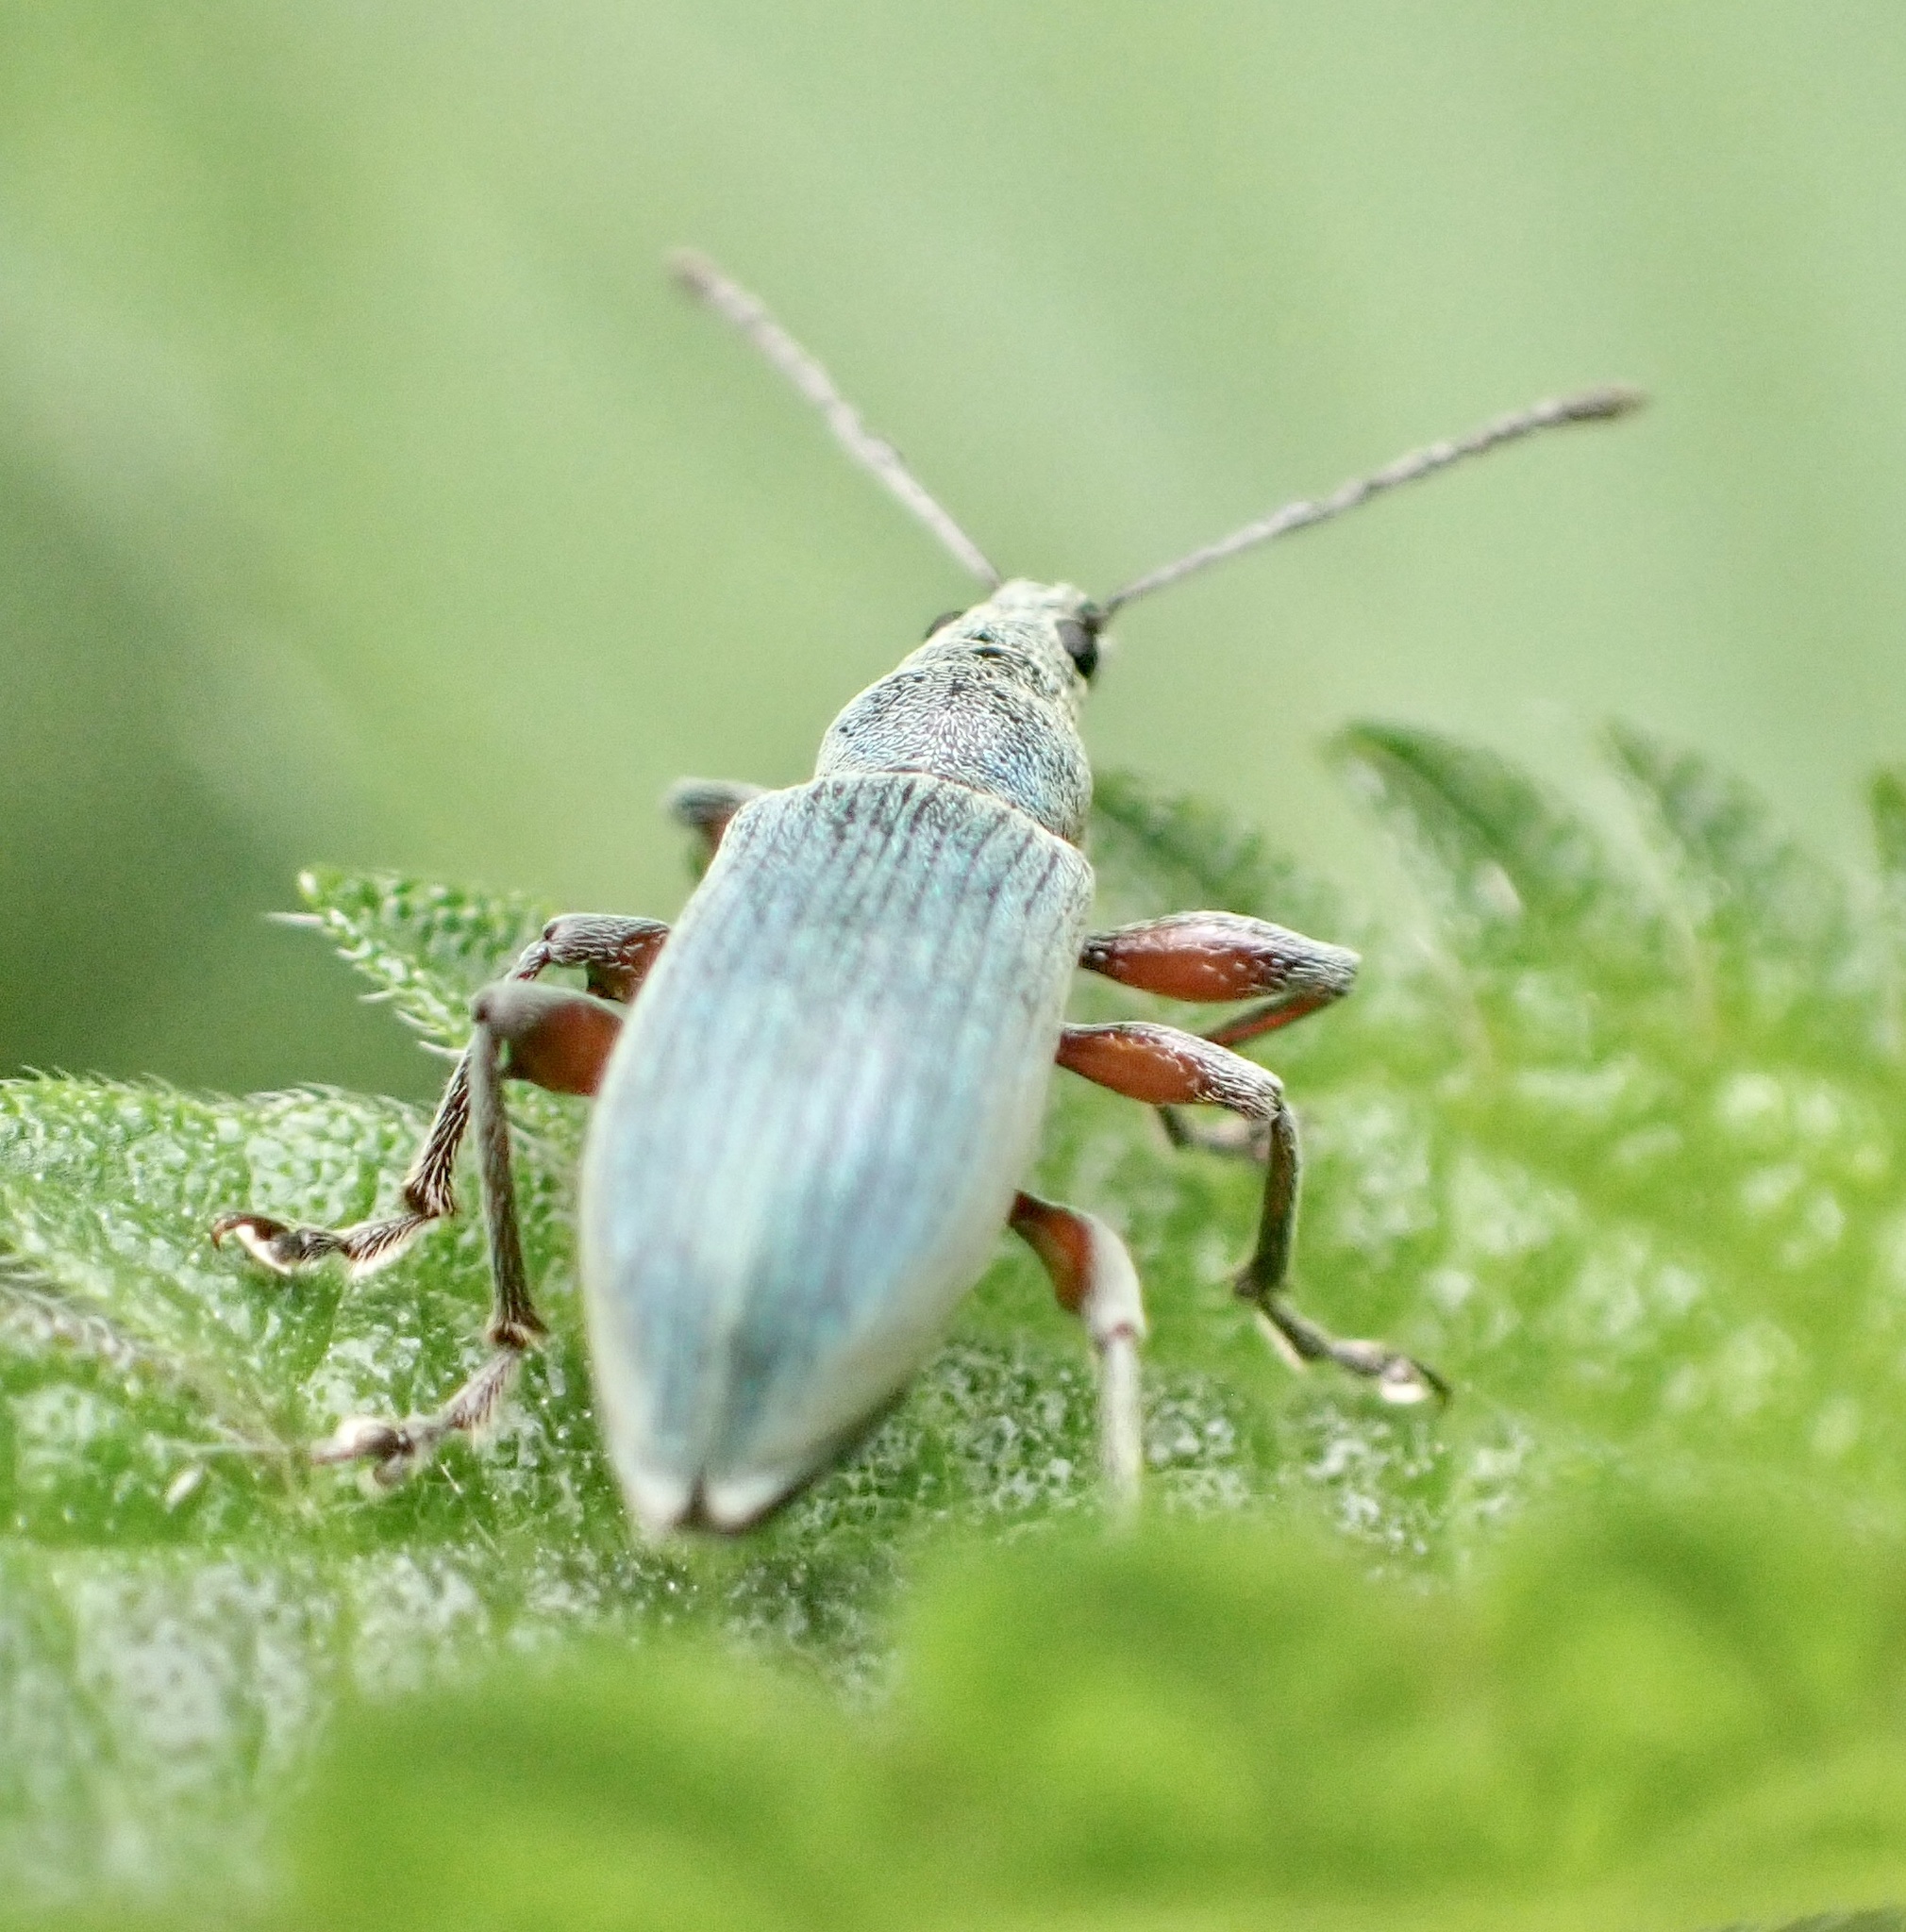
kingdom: Animalia
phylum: Arthropoda
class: Insecta
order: Coleoptera
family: Curculionidae
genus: Phyllobius
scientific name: Phyllobius pomaceus
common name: Green nettle weevil
